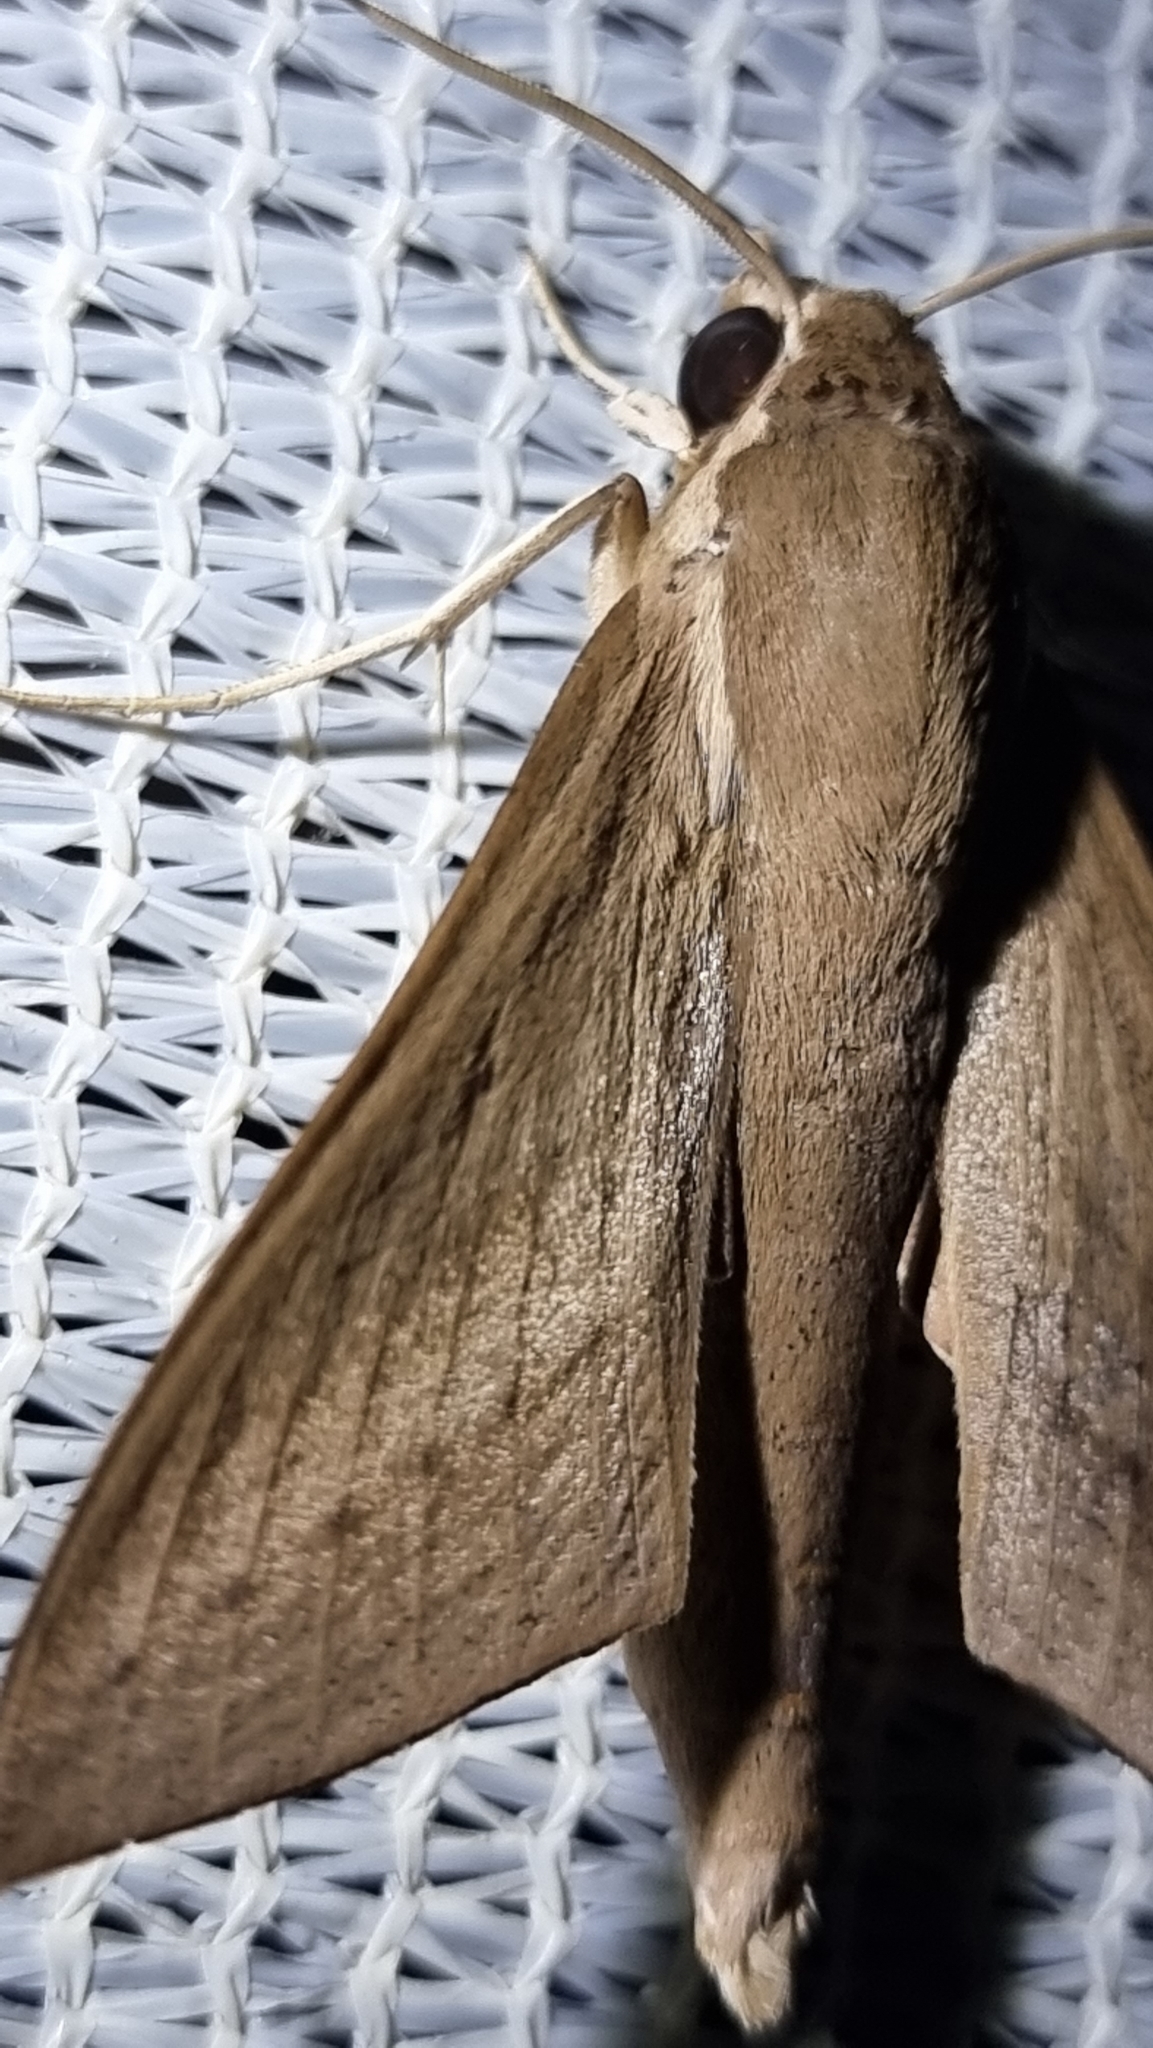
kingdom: Animalia
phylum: Arthropoda
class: Insecta
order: Lepidoptera
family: Sphingidae
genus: Theretra
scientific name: Theretra latreillii
